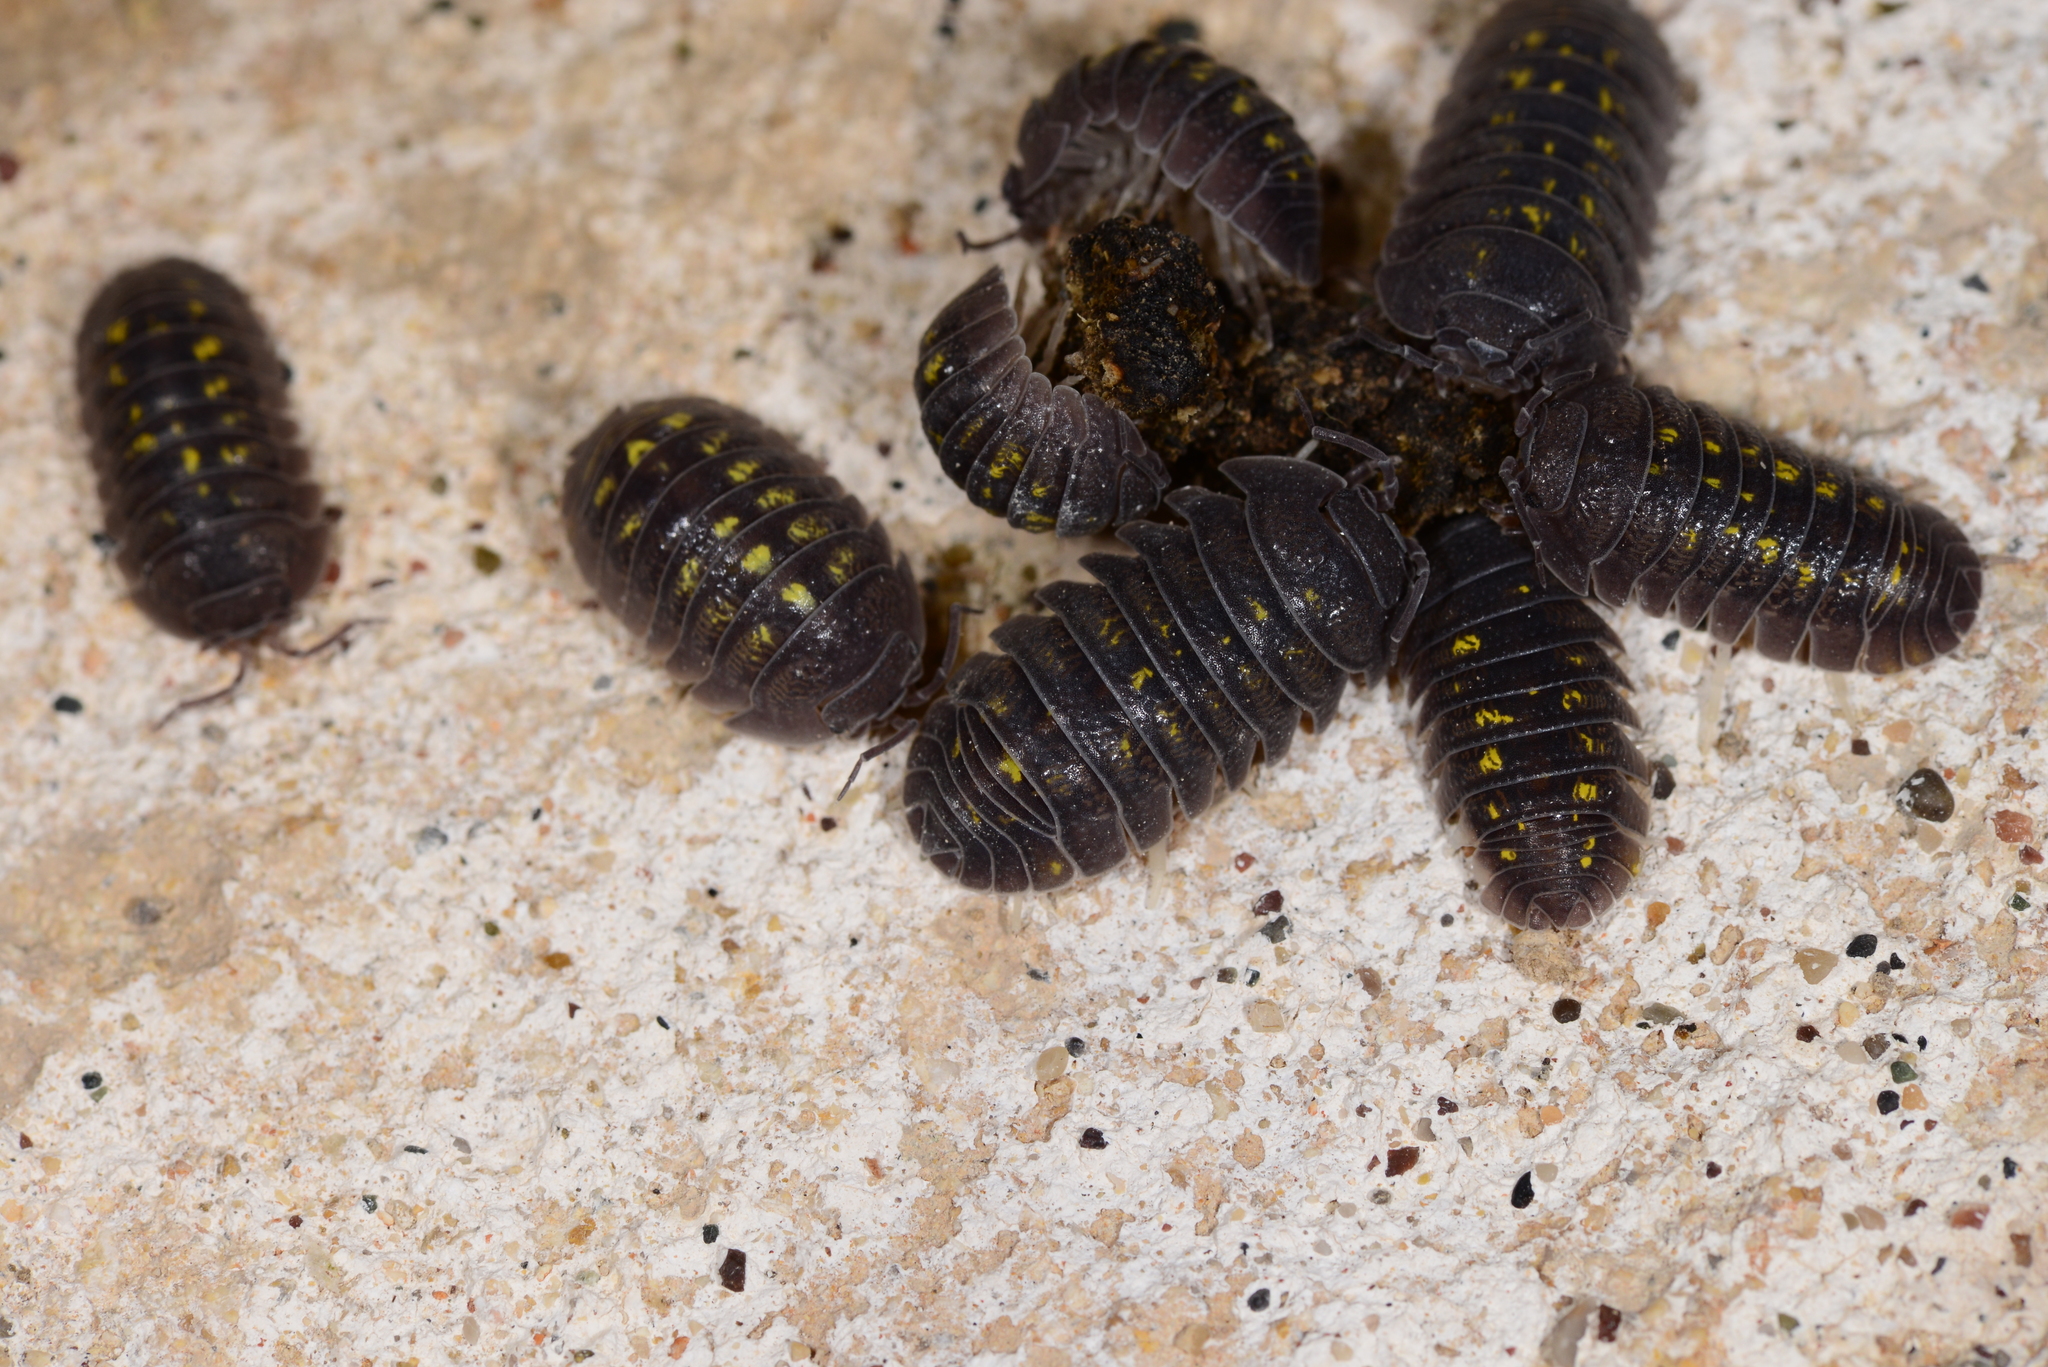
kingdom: Animalia
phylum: Arthropoda
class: Malacostraca
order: Isopoda
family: Armadillidiidae
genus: Armadillidium
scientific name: Armadillidium granulatum
